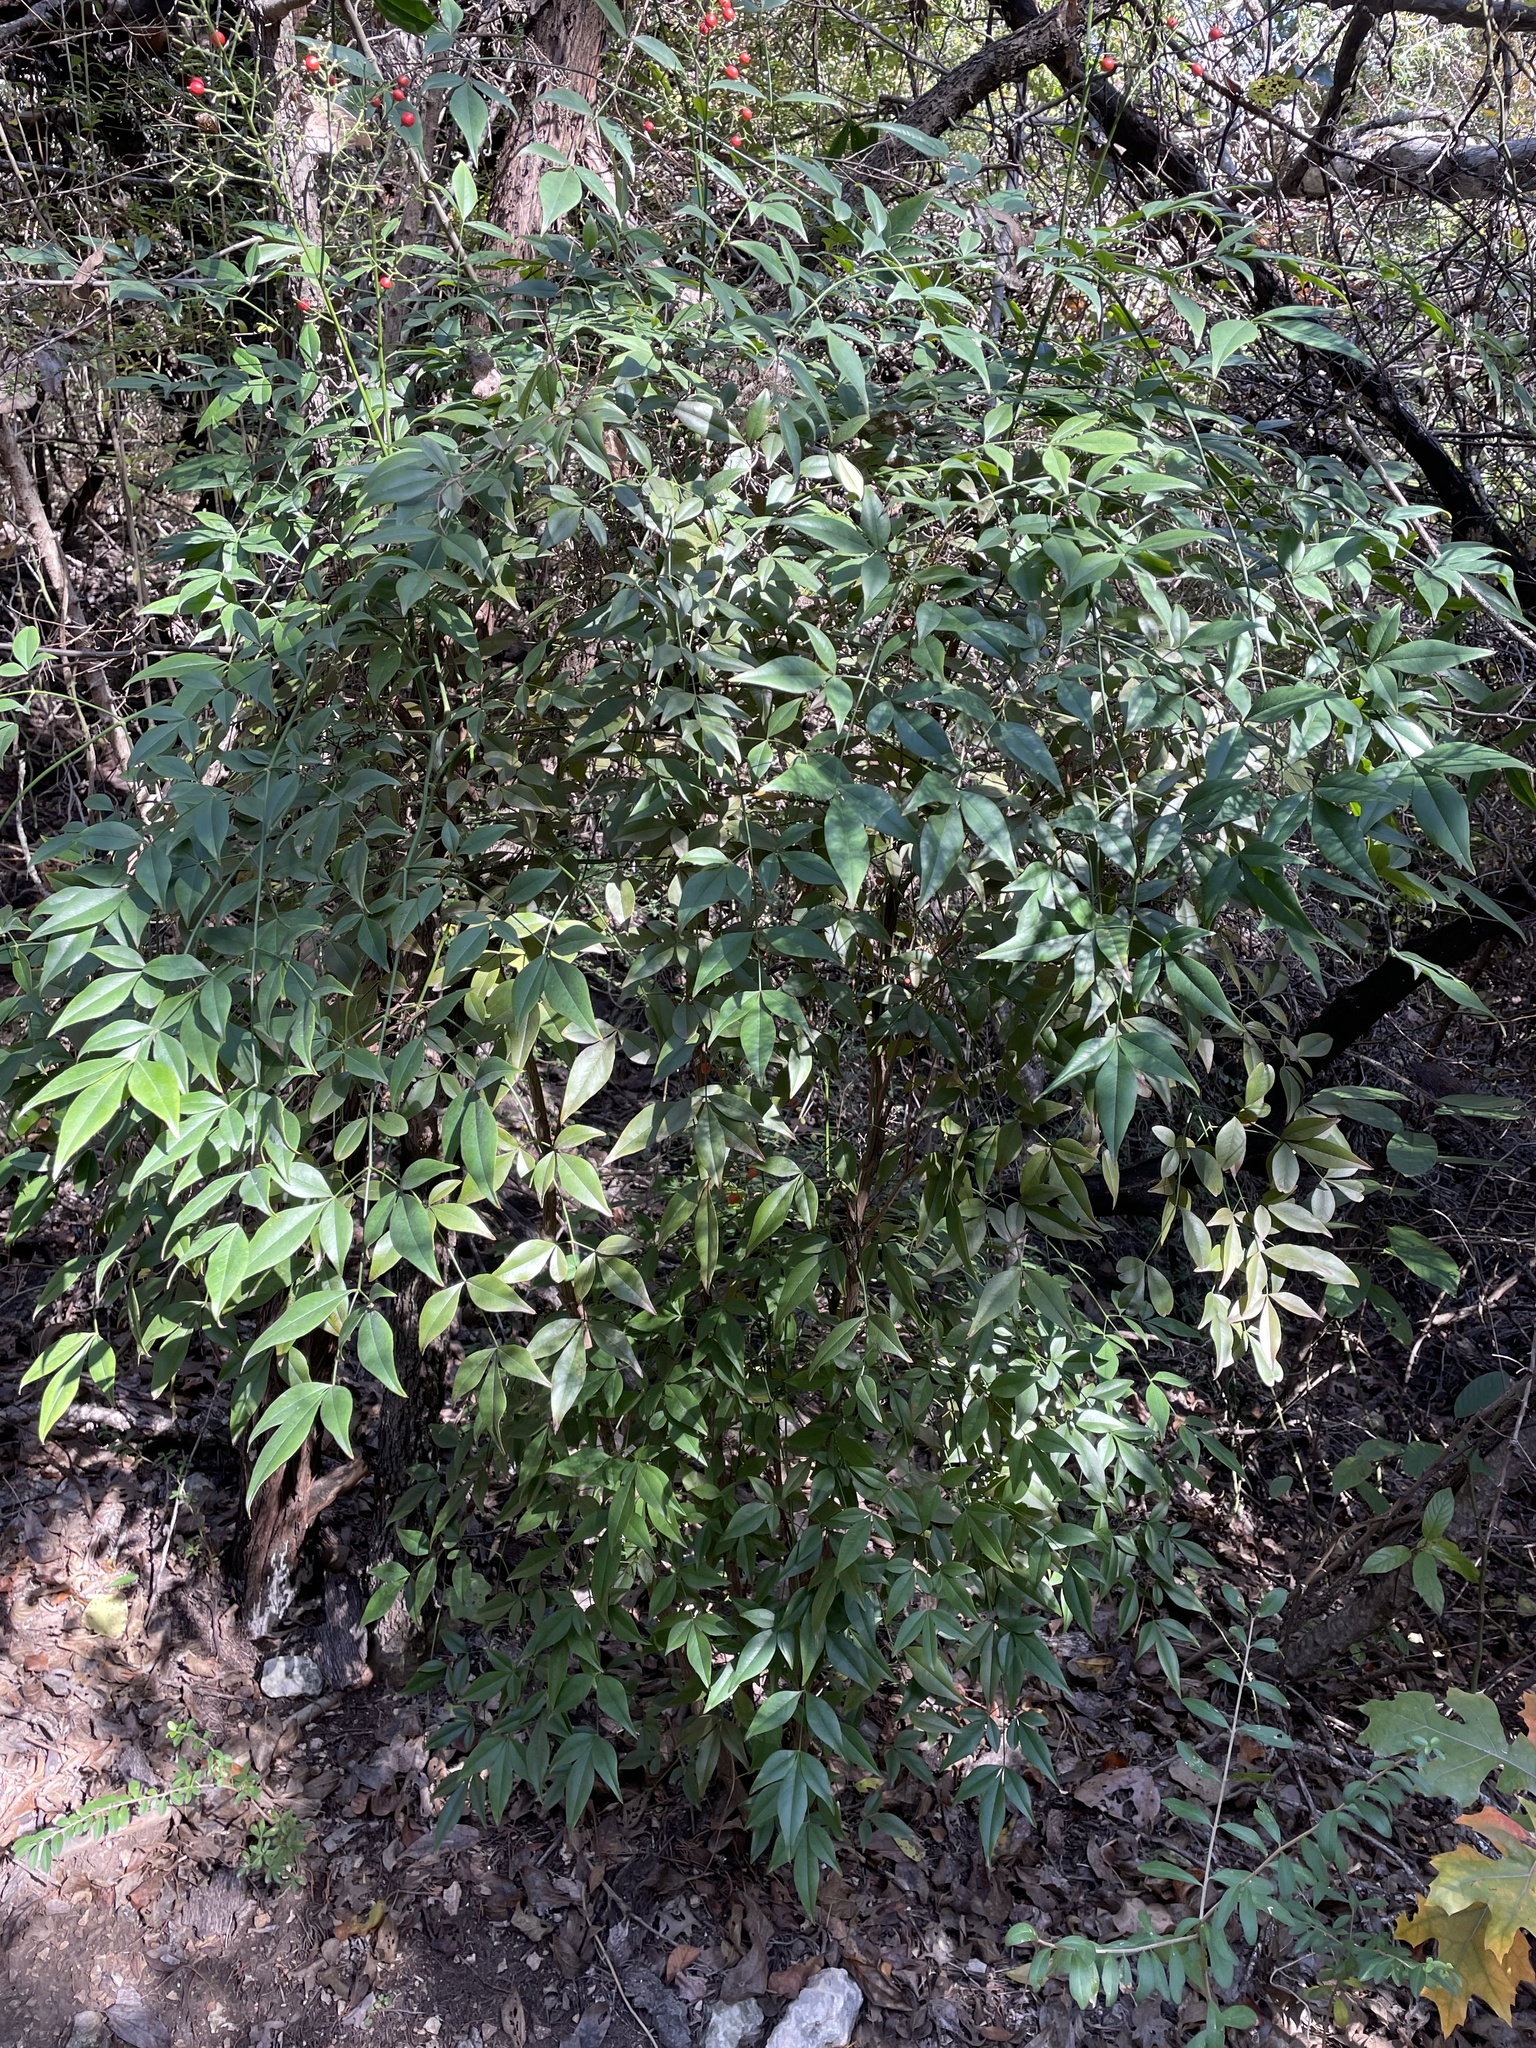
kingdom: Plantae
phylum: Tracheophyta
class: Magnoliopsida
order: Ranunculales
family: Berberidaceae
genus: Nandina
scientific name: Nandina domestica
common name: Sacred bamboo
